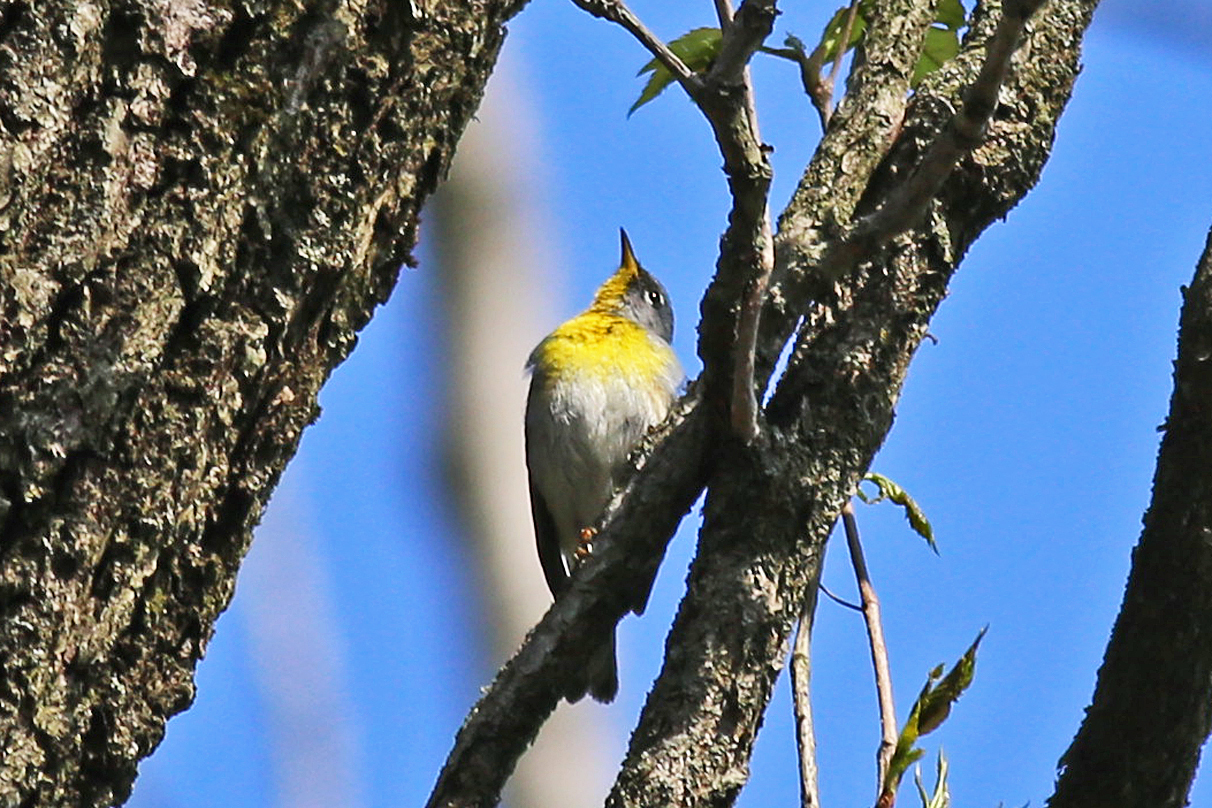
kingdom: Animalia
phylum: Chordata
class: Aves
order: Passeriformes
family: Parulidae
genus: Setophaga
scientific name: Setophaga americana
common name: Northern parula
